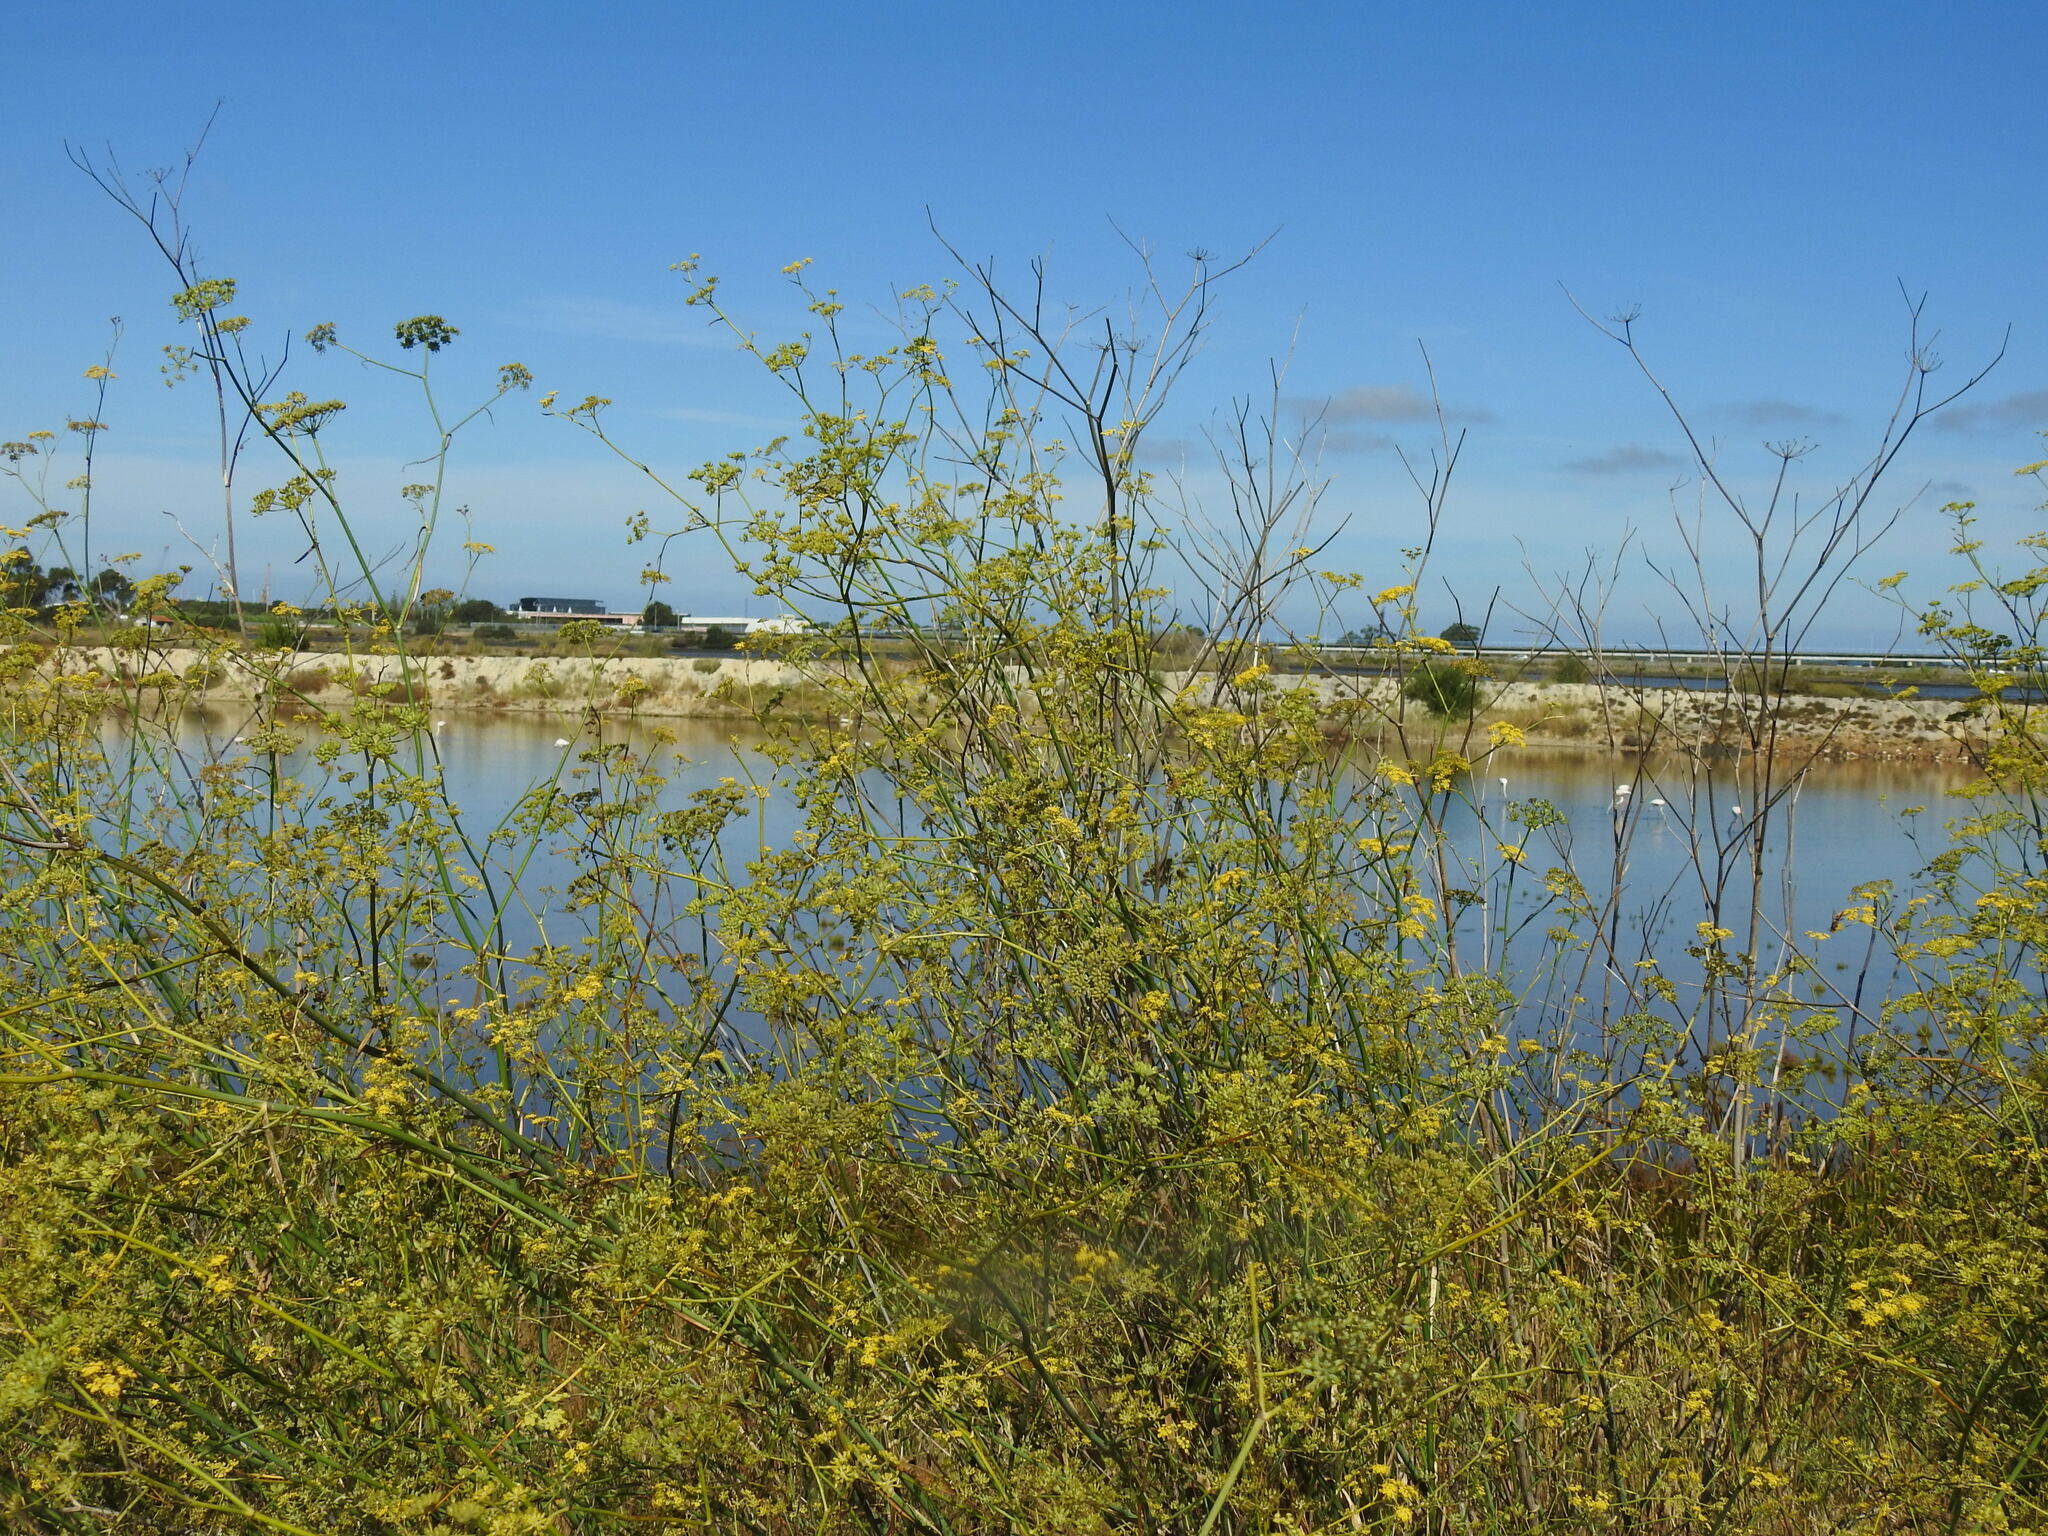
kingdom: Plantae
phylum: Tracheophyta
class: Magnoliopsida
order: Apiales
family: Apiaceae
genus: Foeniculum
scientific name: Foeniculum vulgare
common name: Fennel
